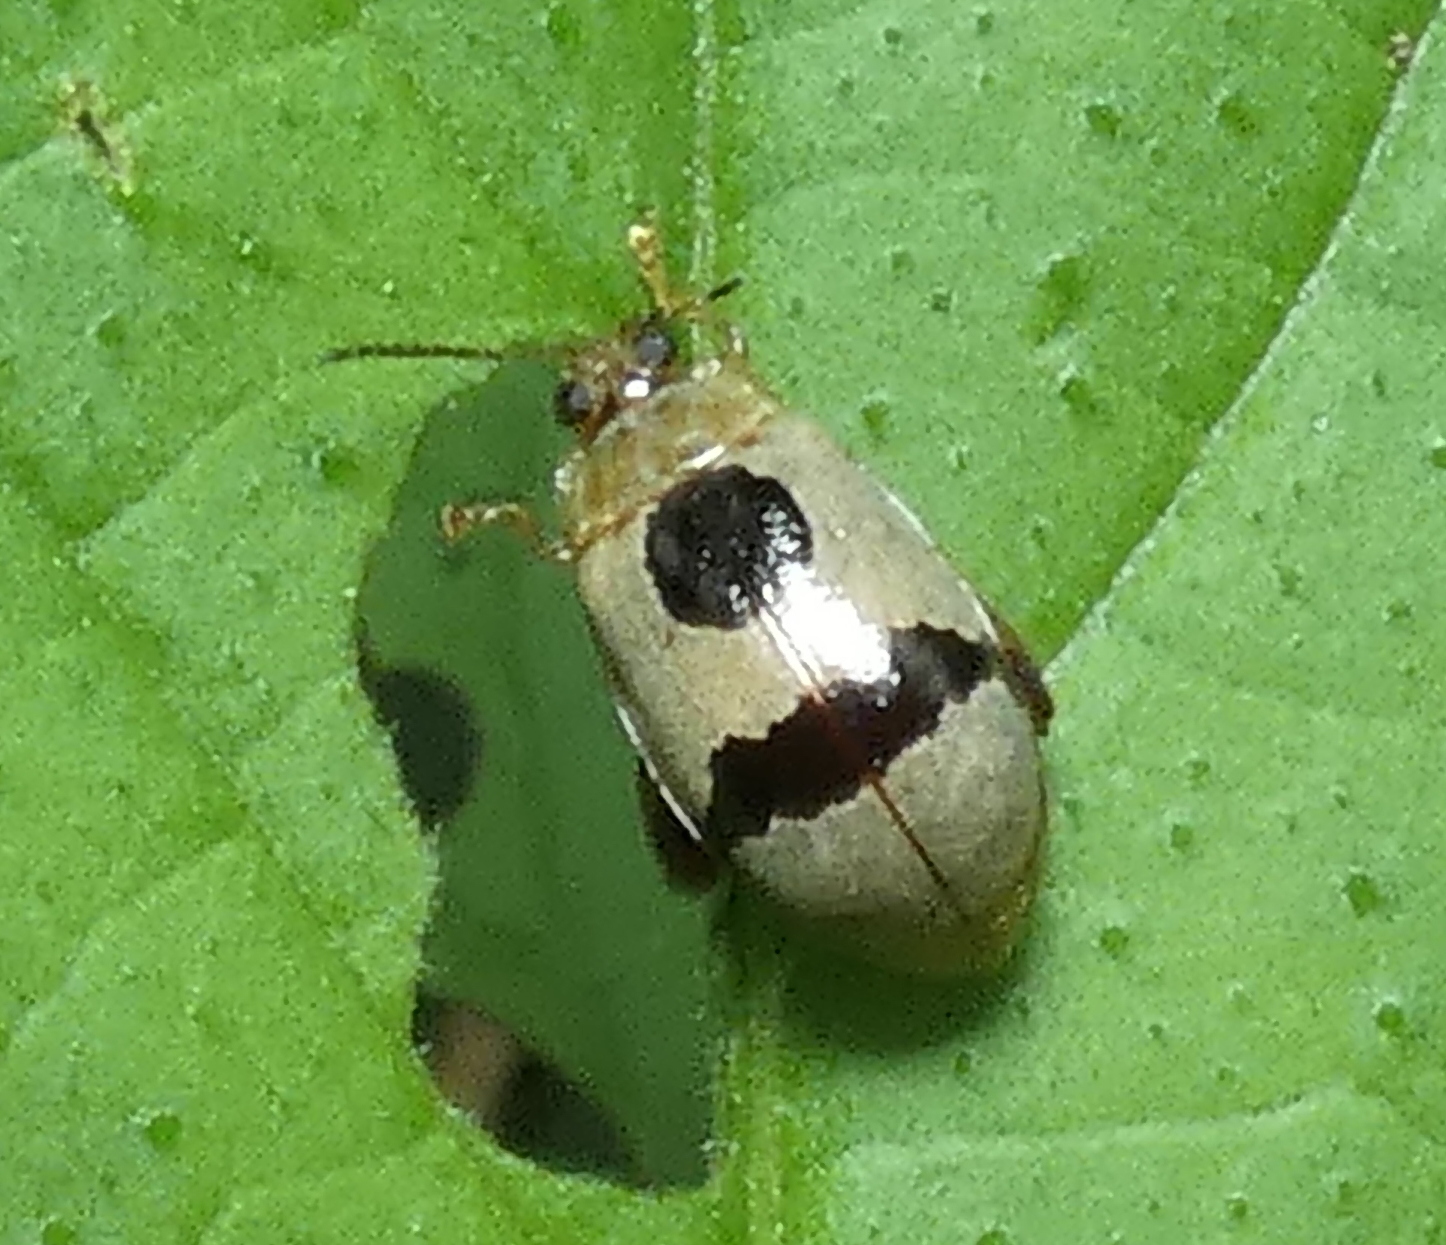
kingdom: Animalia
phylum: Arthropoda
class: Insecta
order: Coleoptera
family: Chrysomelidae
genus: Alagoasa
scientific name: Alagoasa
